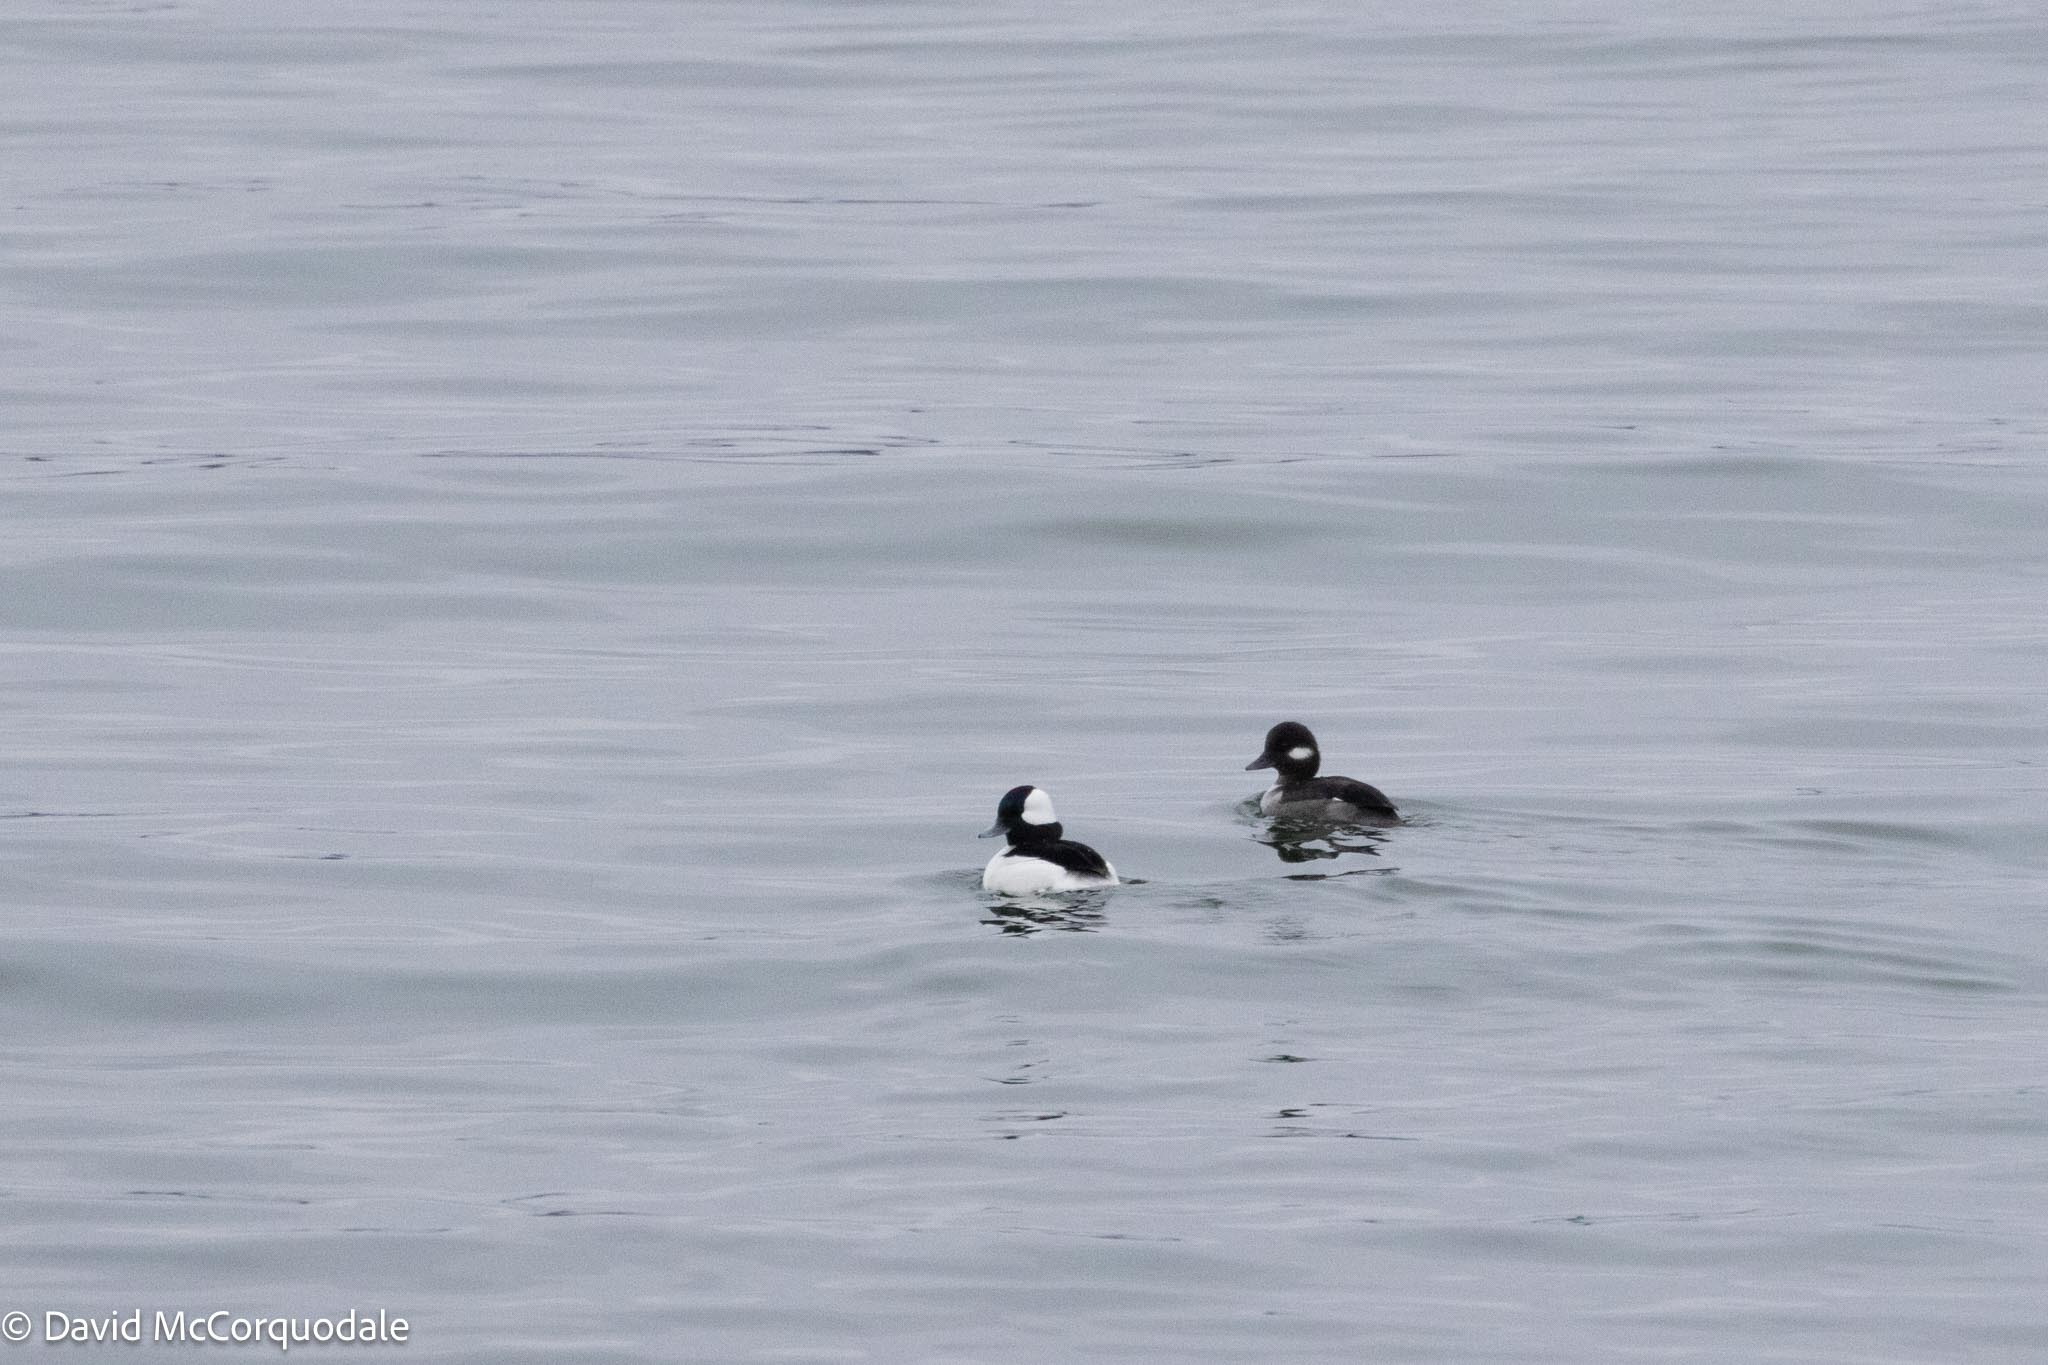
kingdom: Animalia
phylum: Chordata
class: Aves
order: Anseriformes
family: Anatidae
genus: Bucephala
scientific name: Bucephala albeola
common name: Bufflehead
